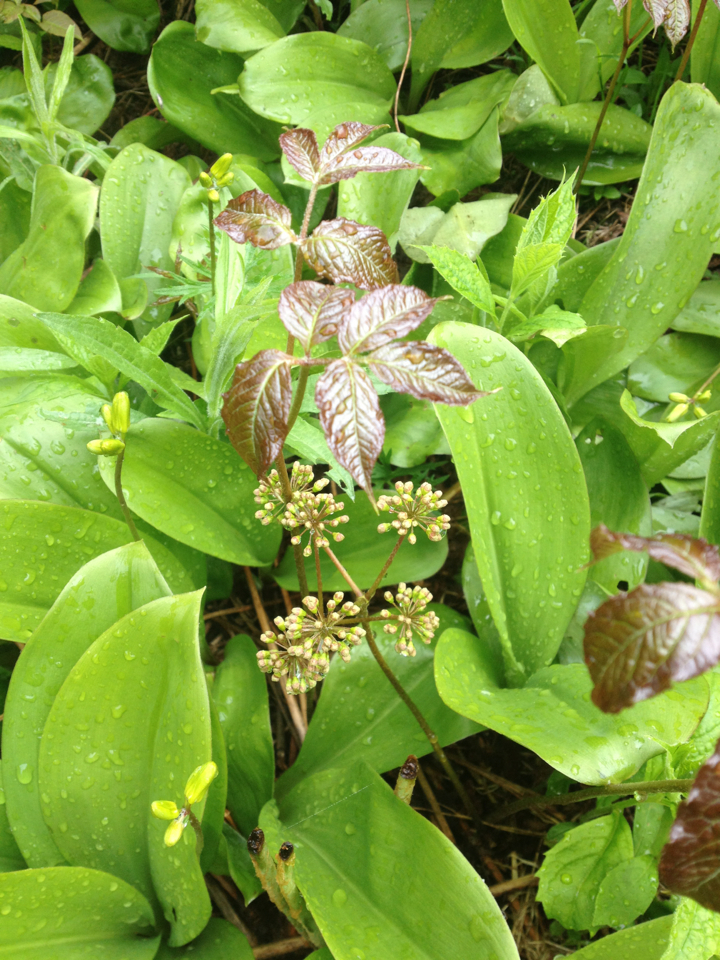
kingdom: Plantae
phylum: Tracheophyta
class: Magnoliopsida
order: Apiales
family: Araliaceae
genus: Aralia
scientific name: Aralia nudicaulis
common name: Wild sarsaparilla
